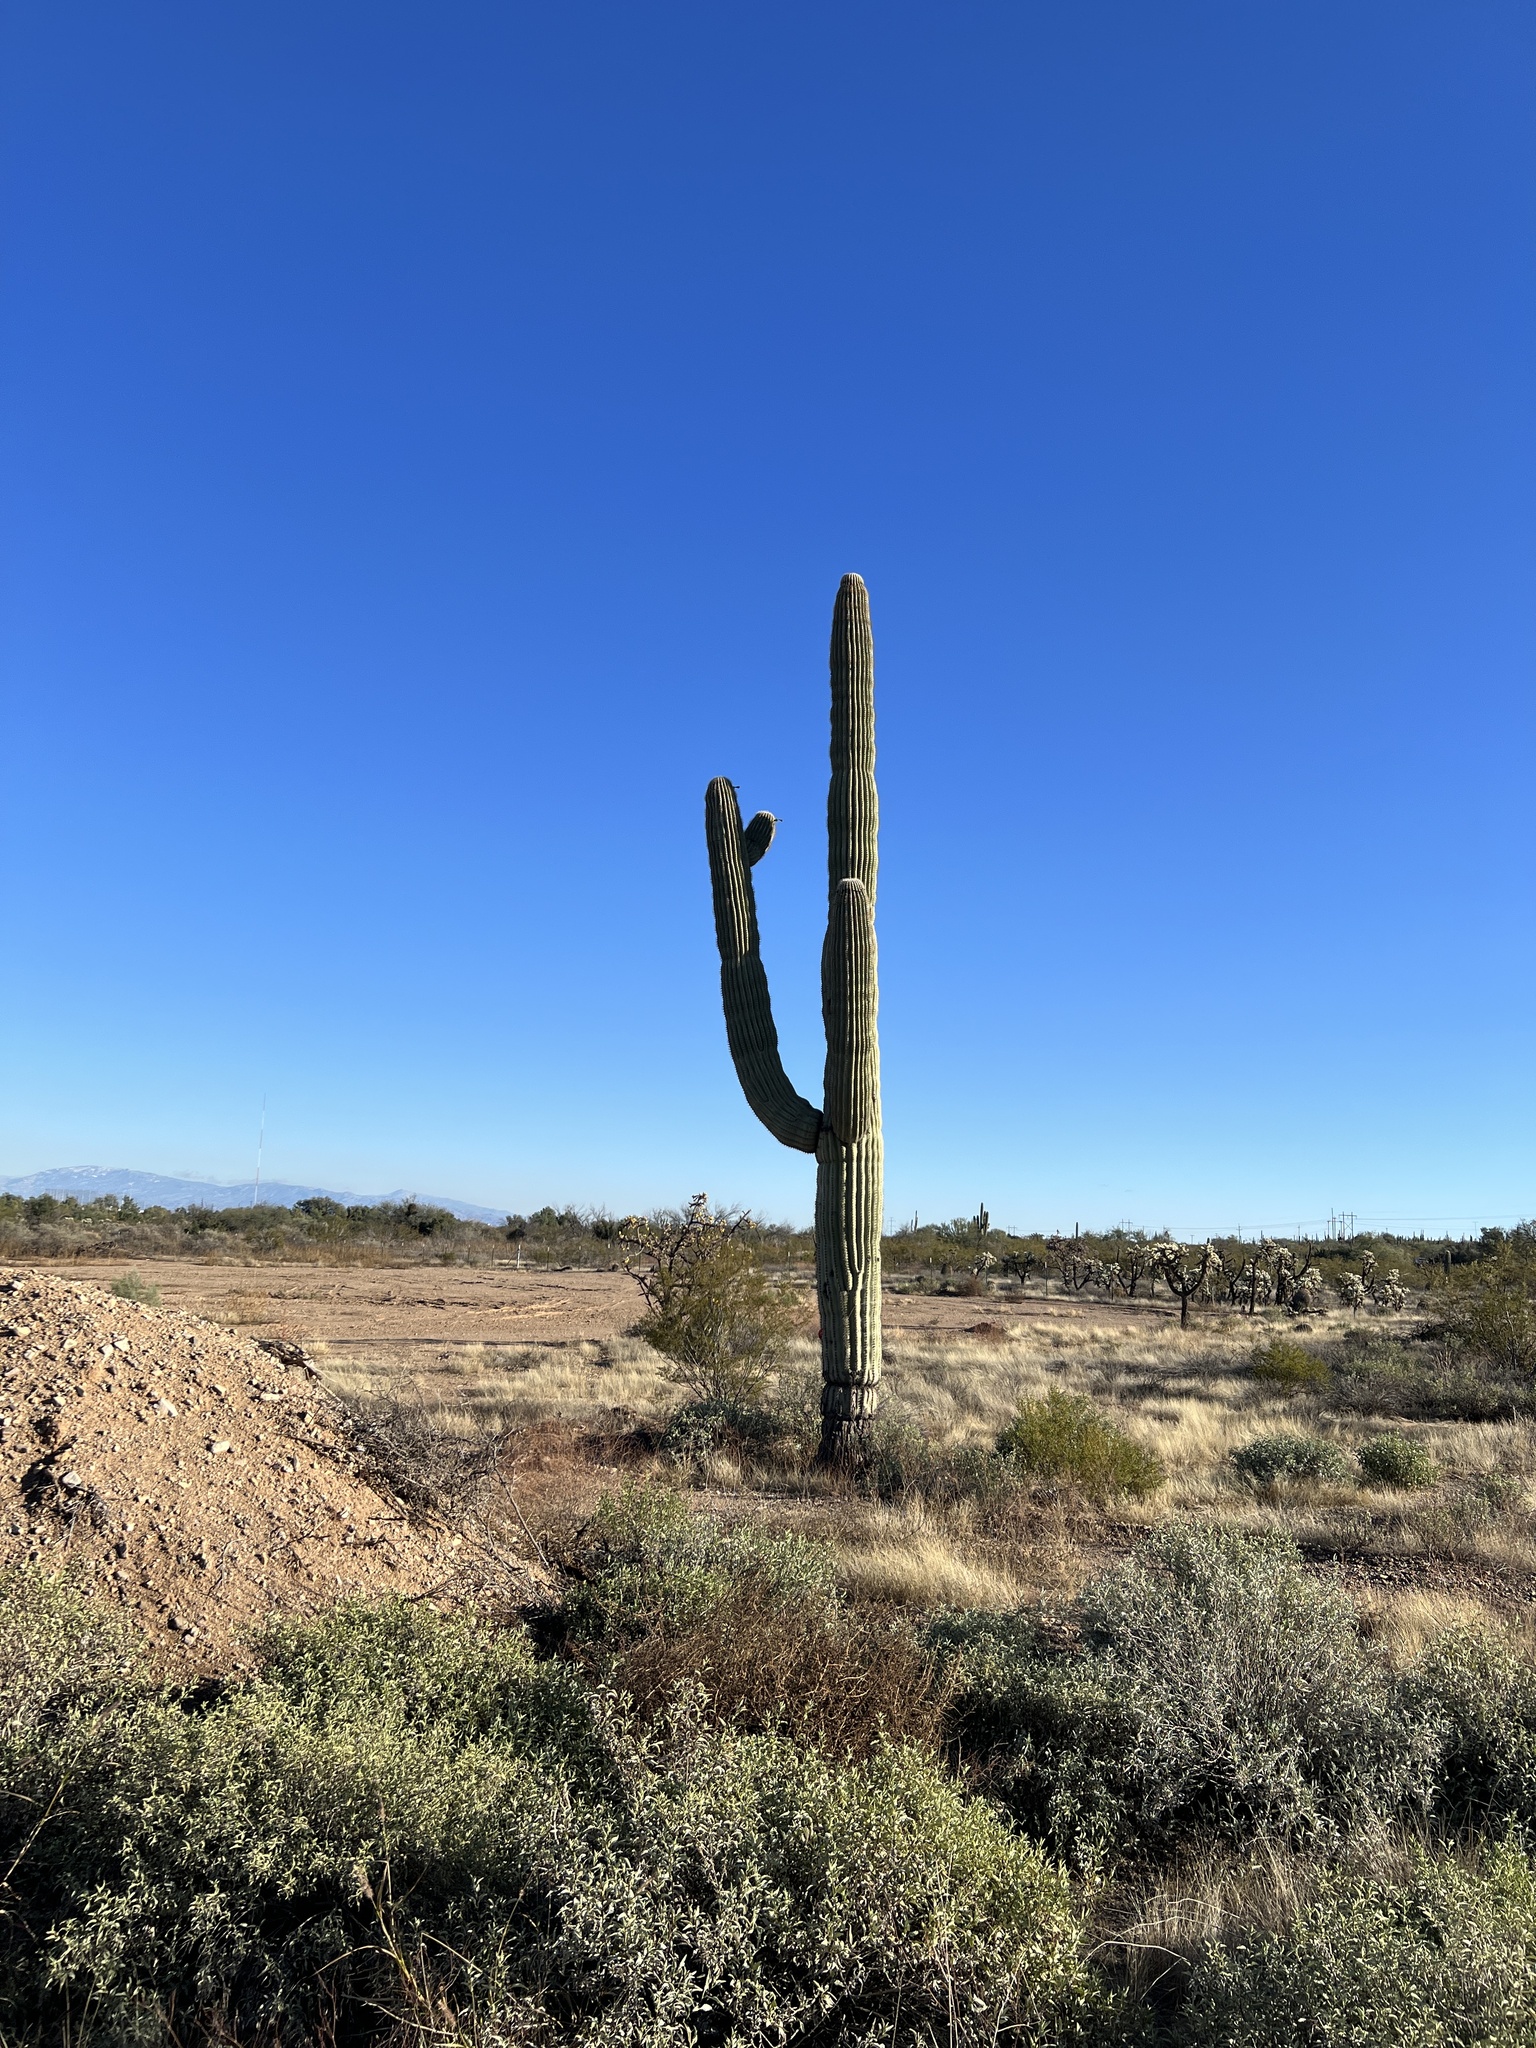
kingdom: Plantae
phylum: Tracheophyta
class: Magnoliopsida
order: Caryophyllales
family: Cactaceae
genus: Carnegiea
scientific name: Carnegiea gigantea
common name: Saguaro
